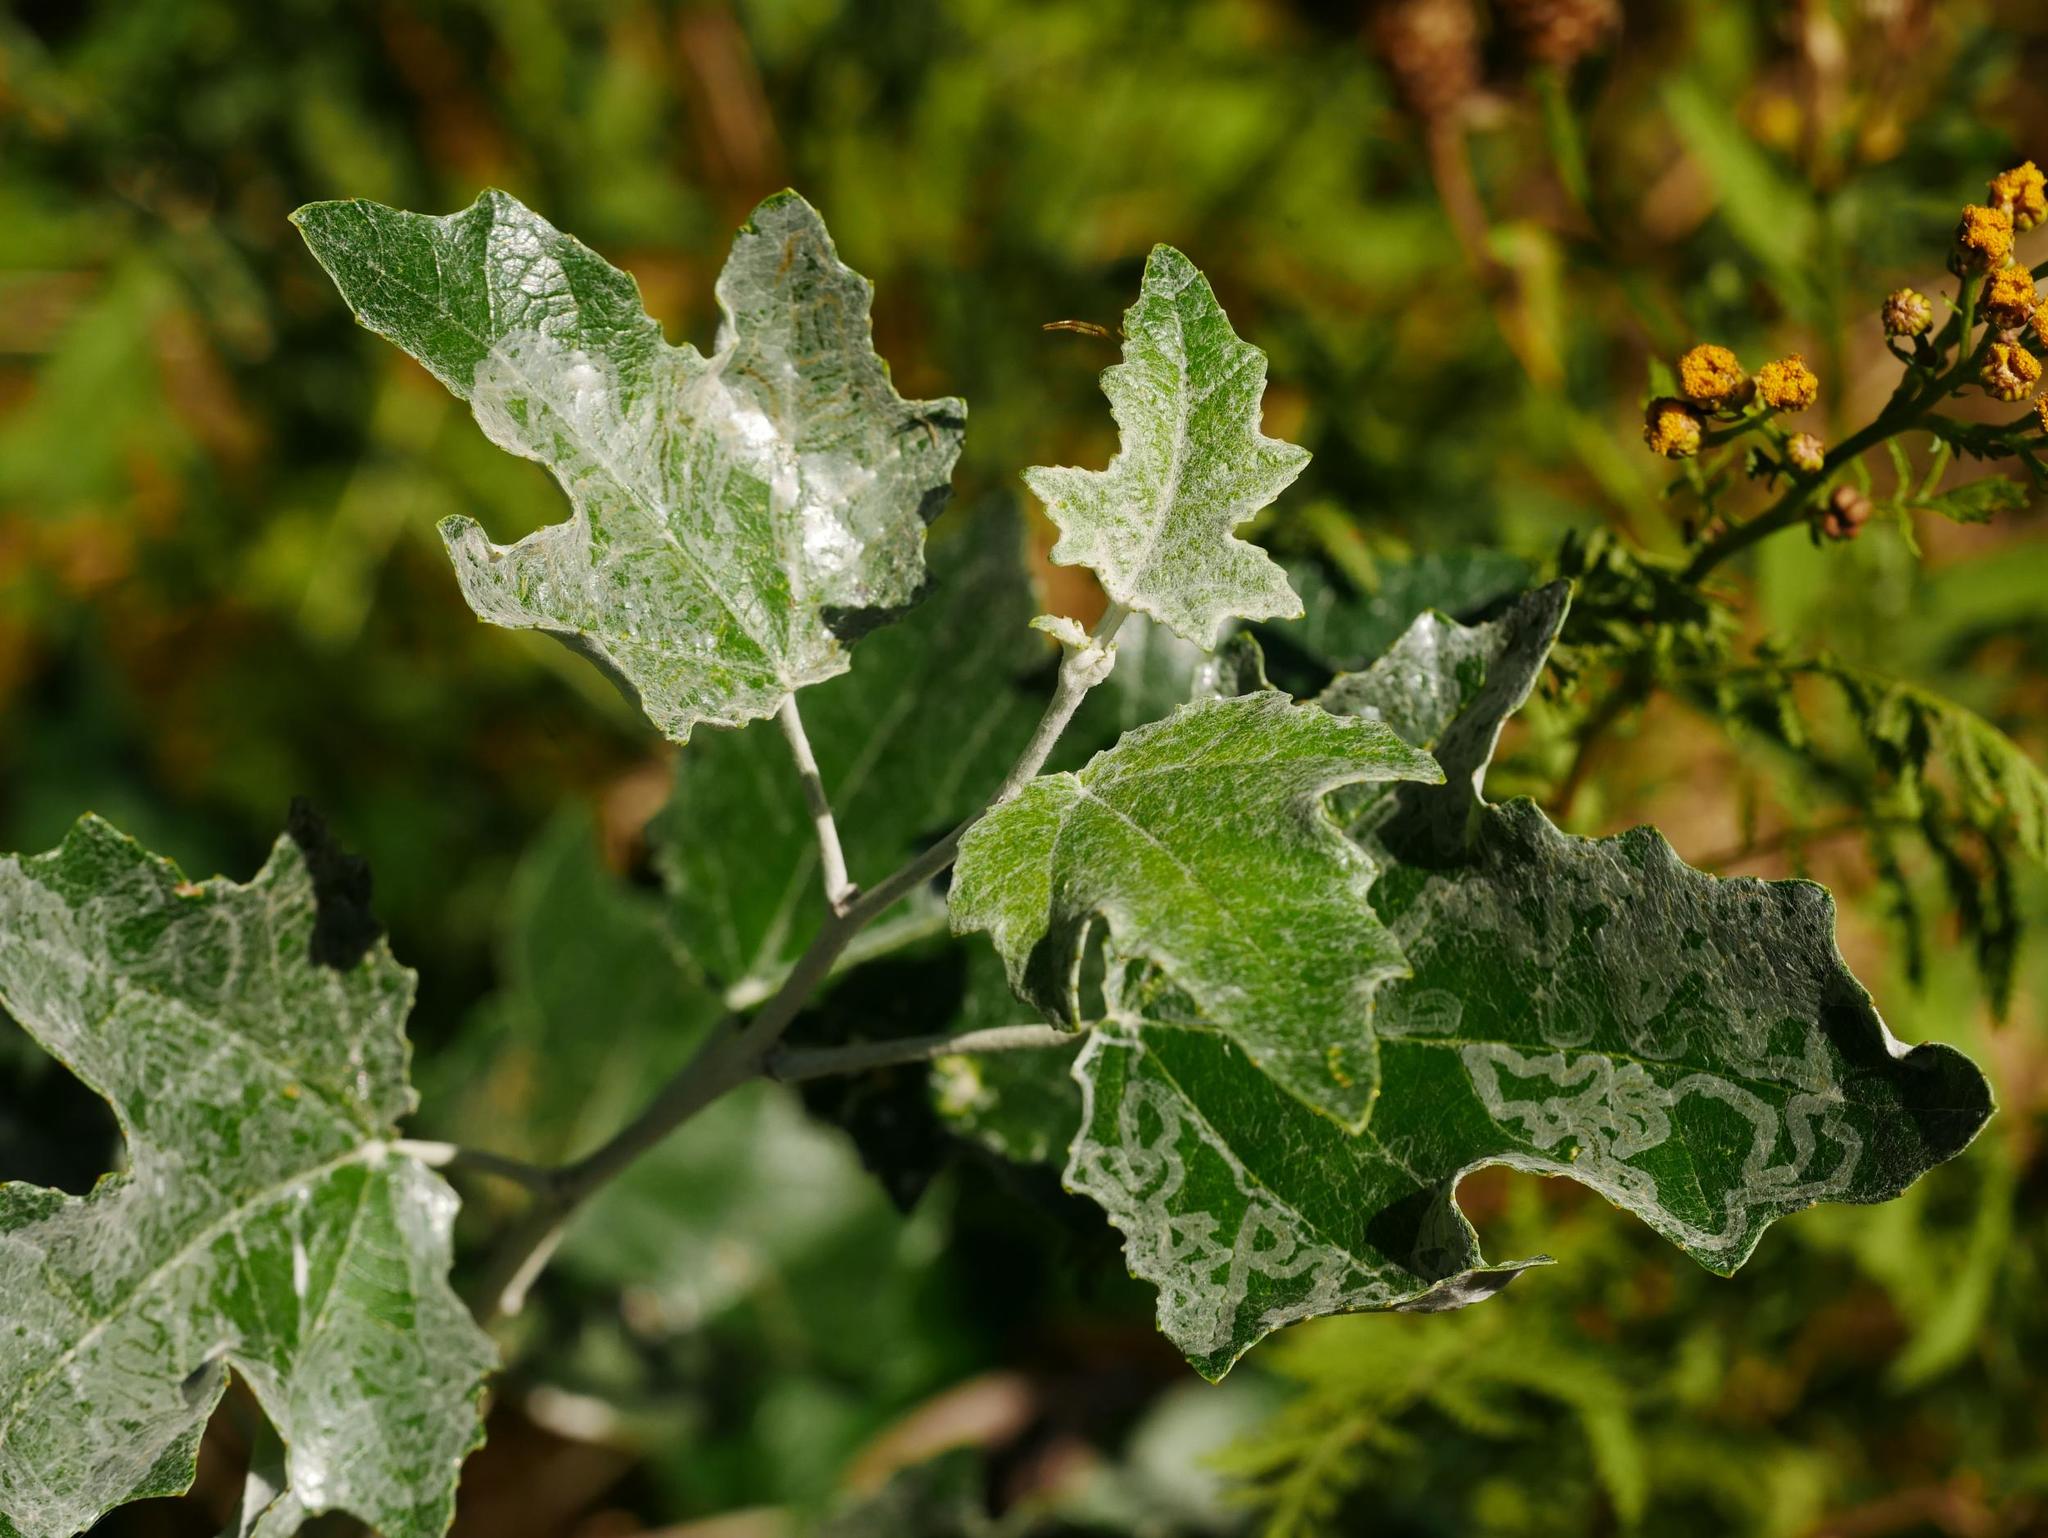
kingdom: Plantae
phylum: Tracheophyta
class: Magnoliopsida
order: Asterales
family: Asteraceae
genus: Tanacetum
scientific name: Tanacetum vulgare
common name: Common tansy
